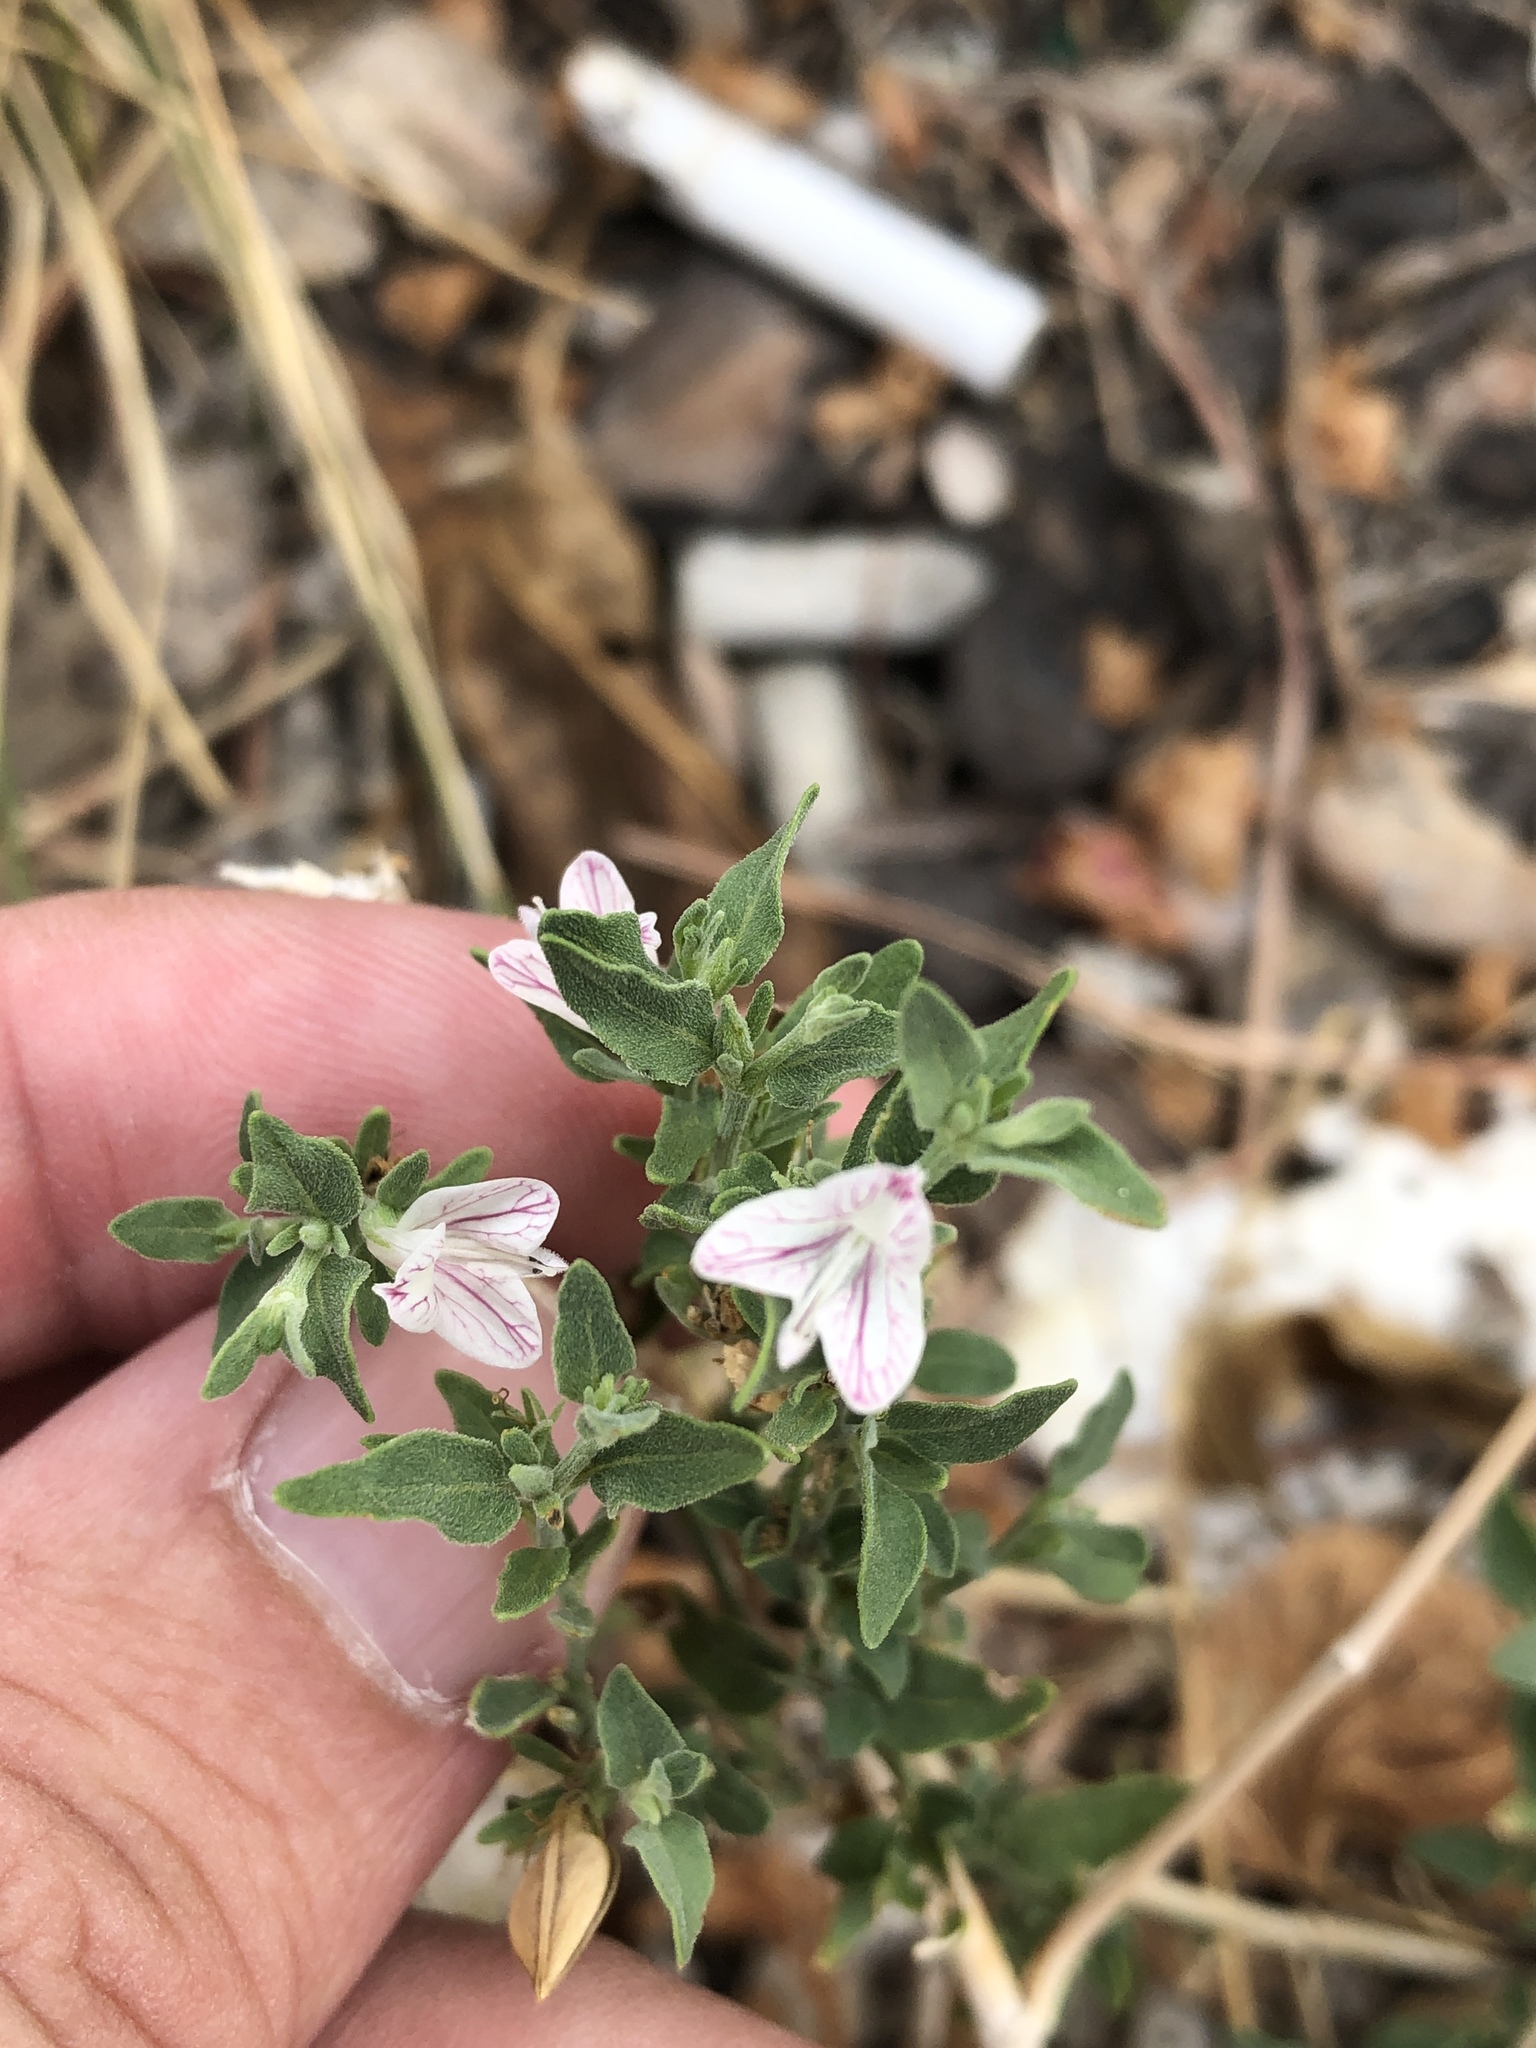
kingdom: Plantae
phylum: Tracheophyta
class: Magnoliopsida
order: Lamiales
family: Acanthaceae
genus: Carlowrightia
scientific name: Carlowrightia texana
